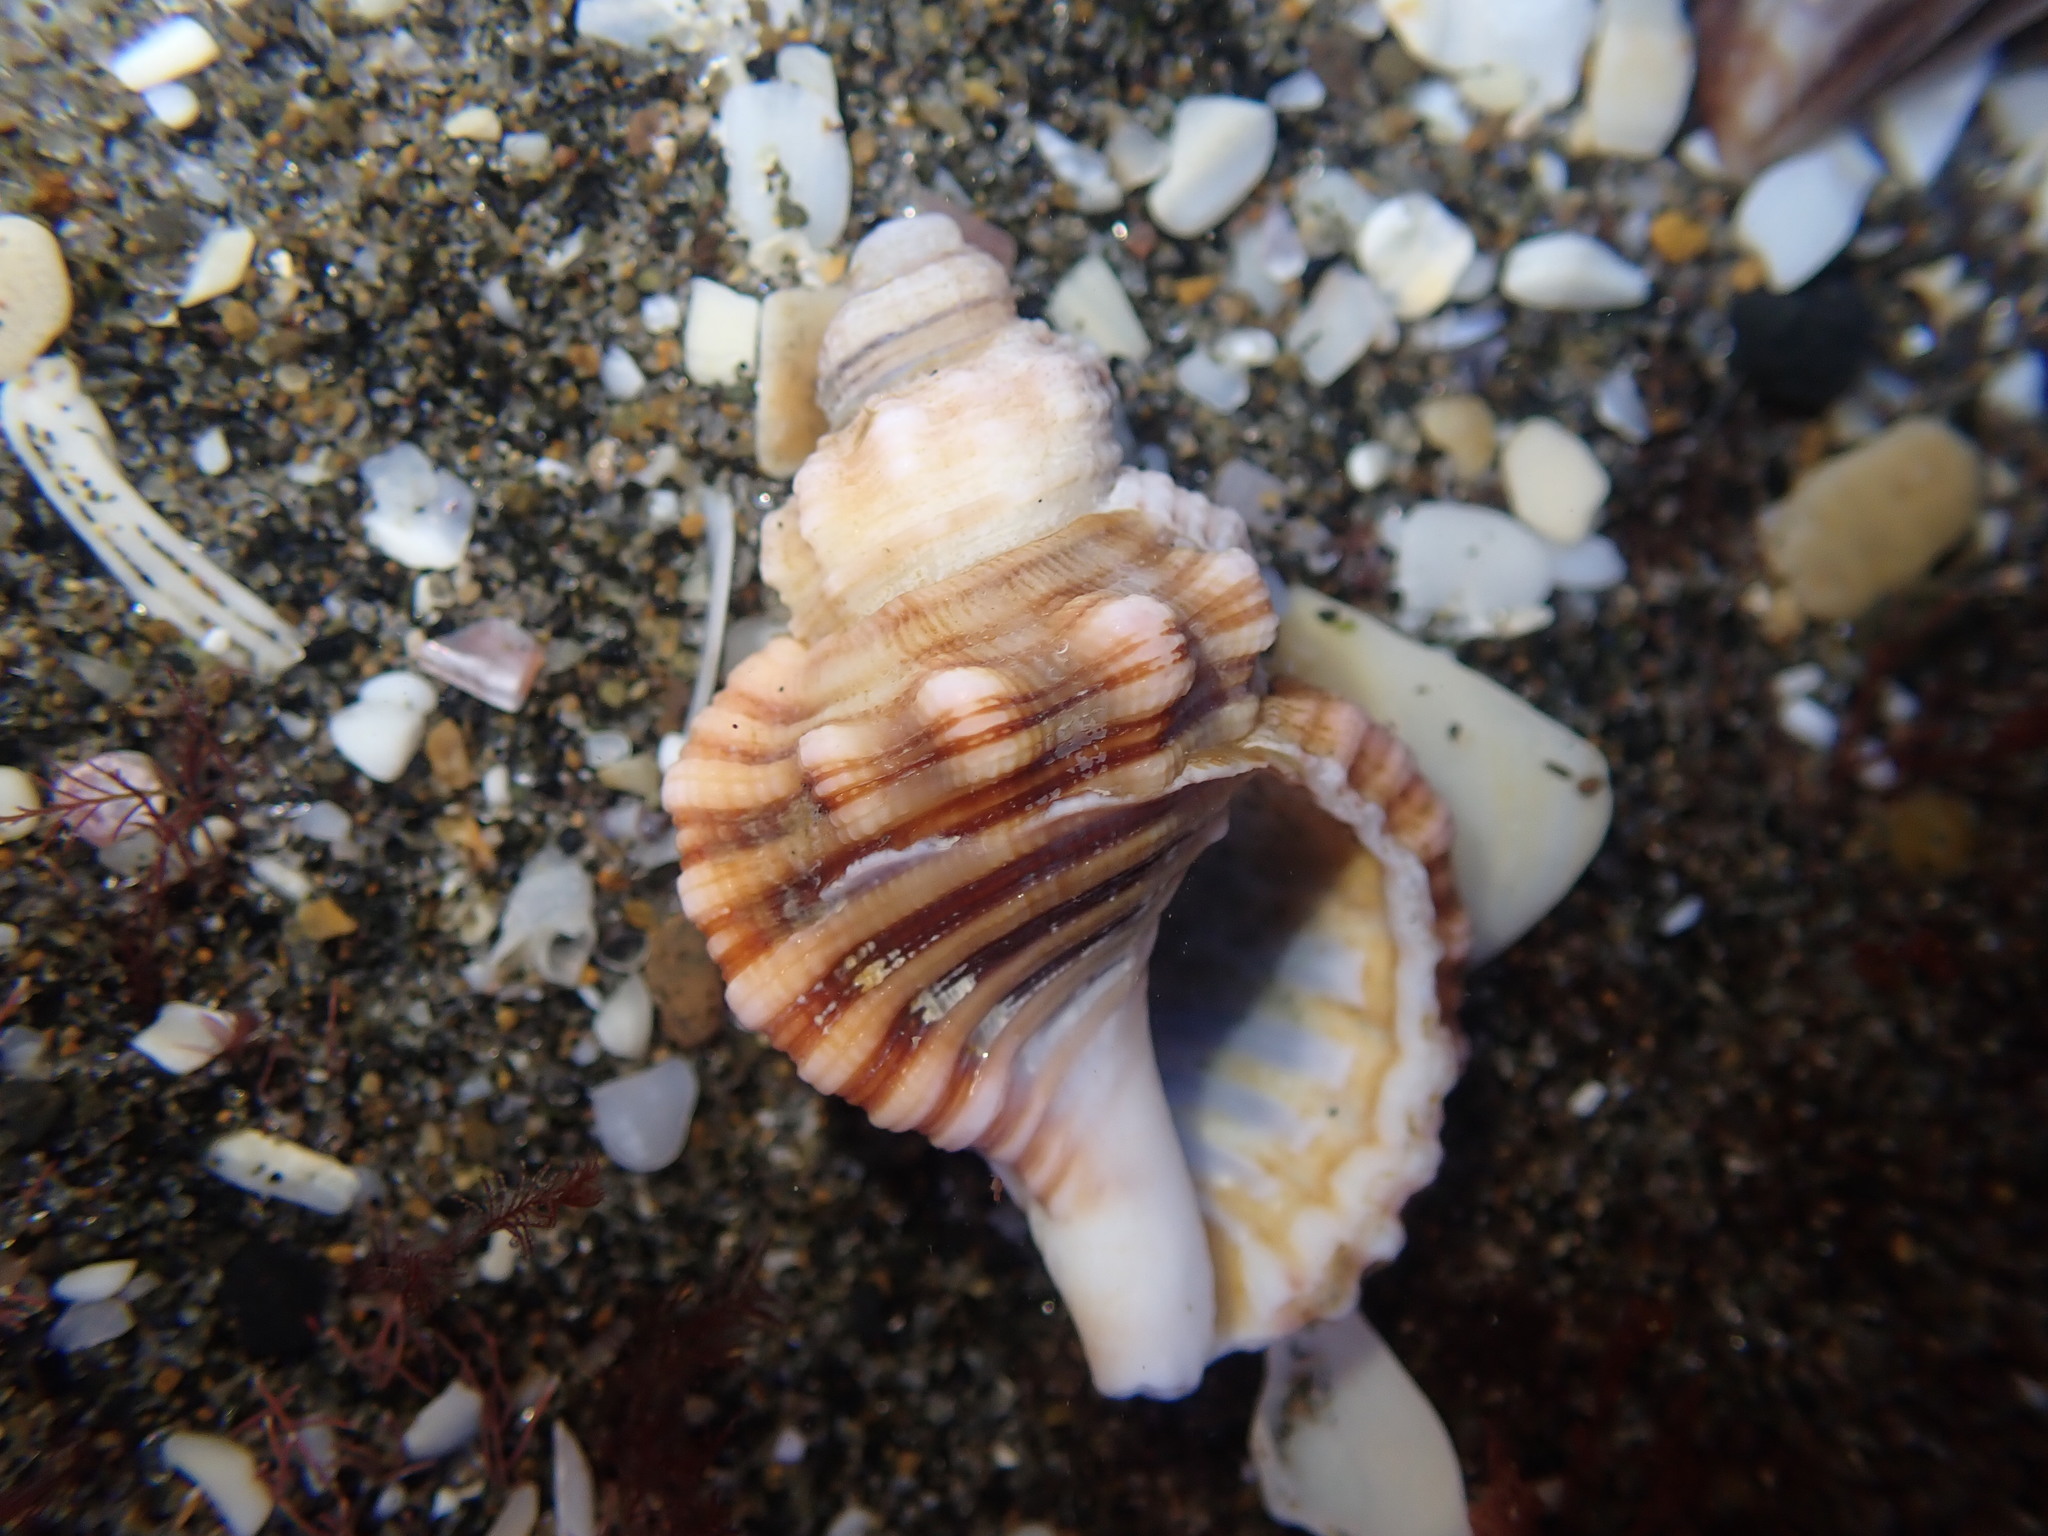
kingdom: Animalia
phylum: Mollusca
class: Gastropoda
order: Littorinimorpha
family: Cymatiidae
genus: Cabestana
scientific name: Cabestana spengleri
